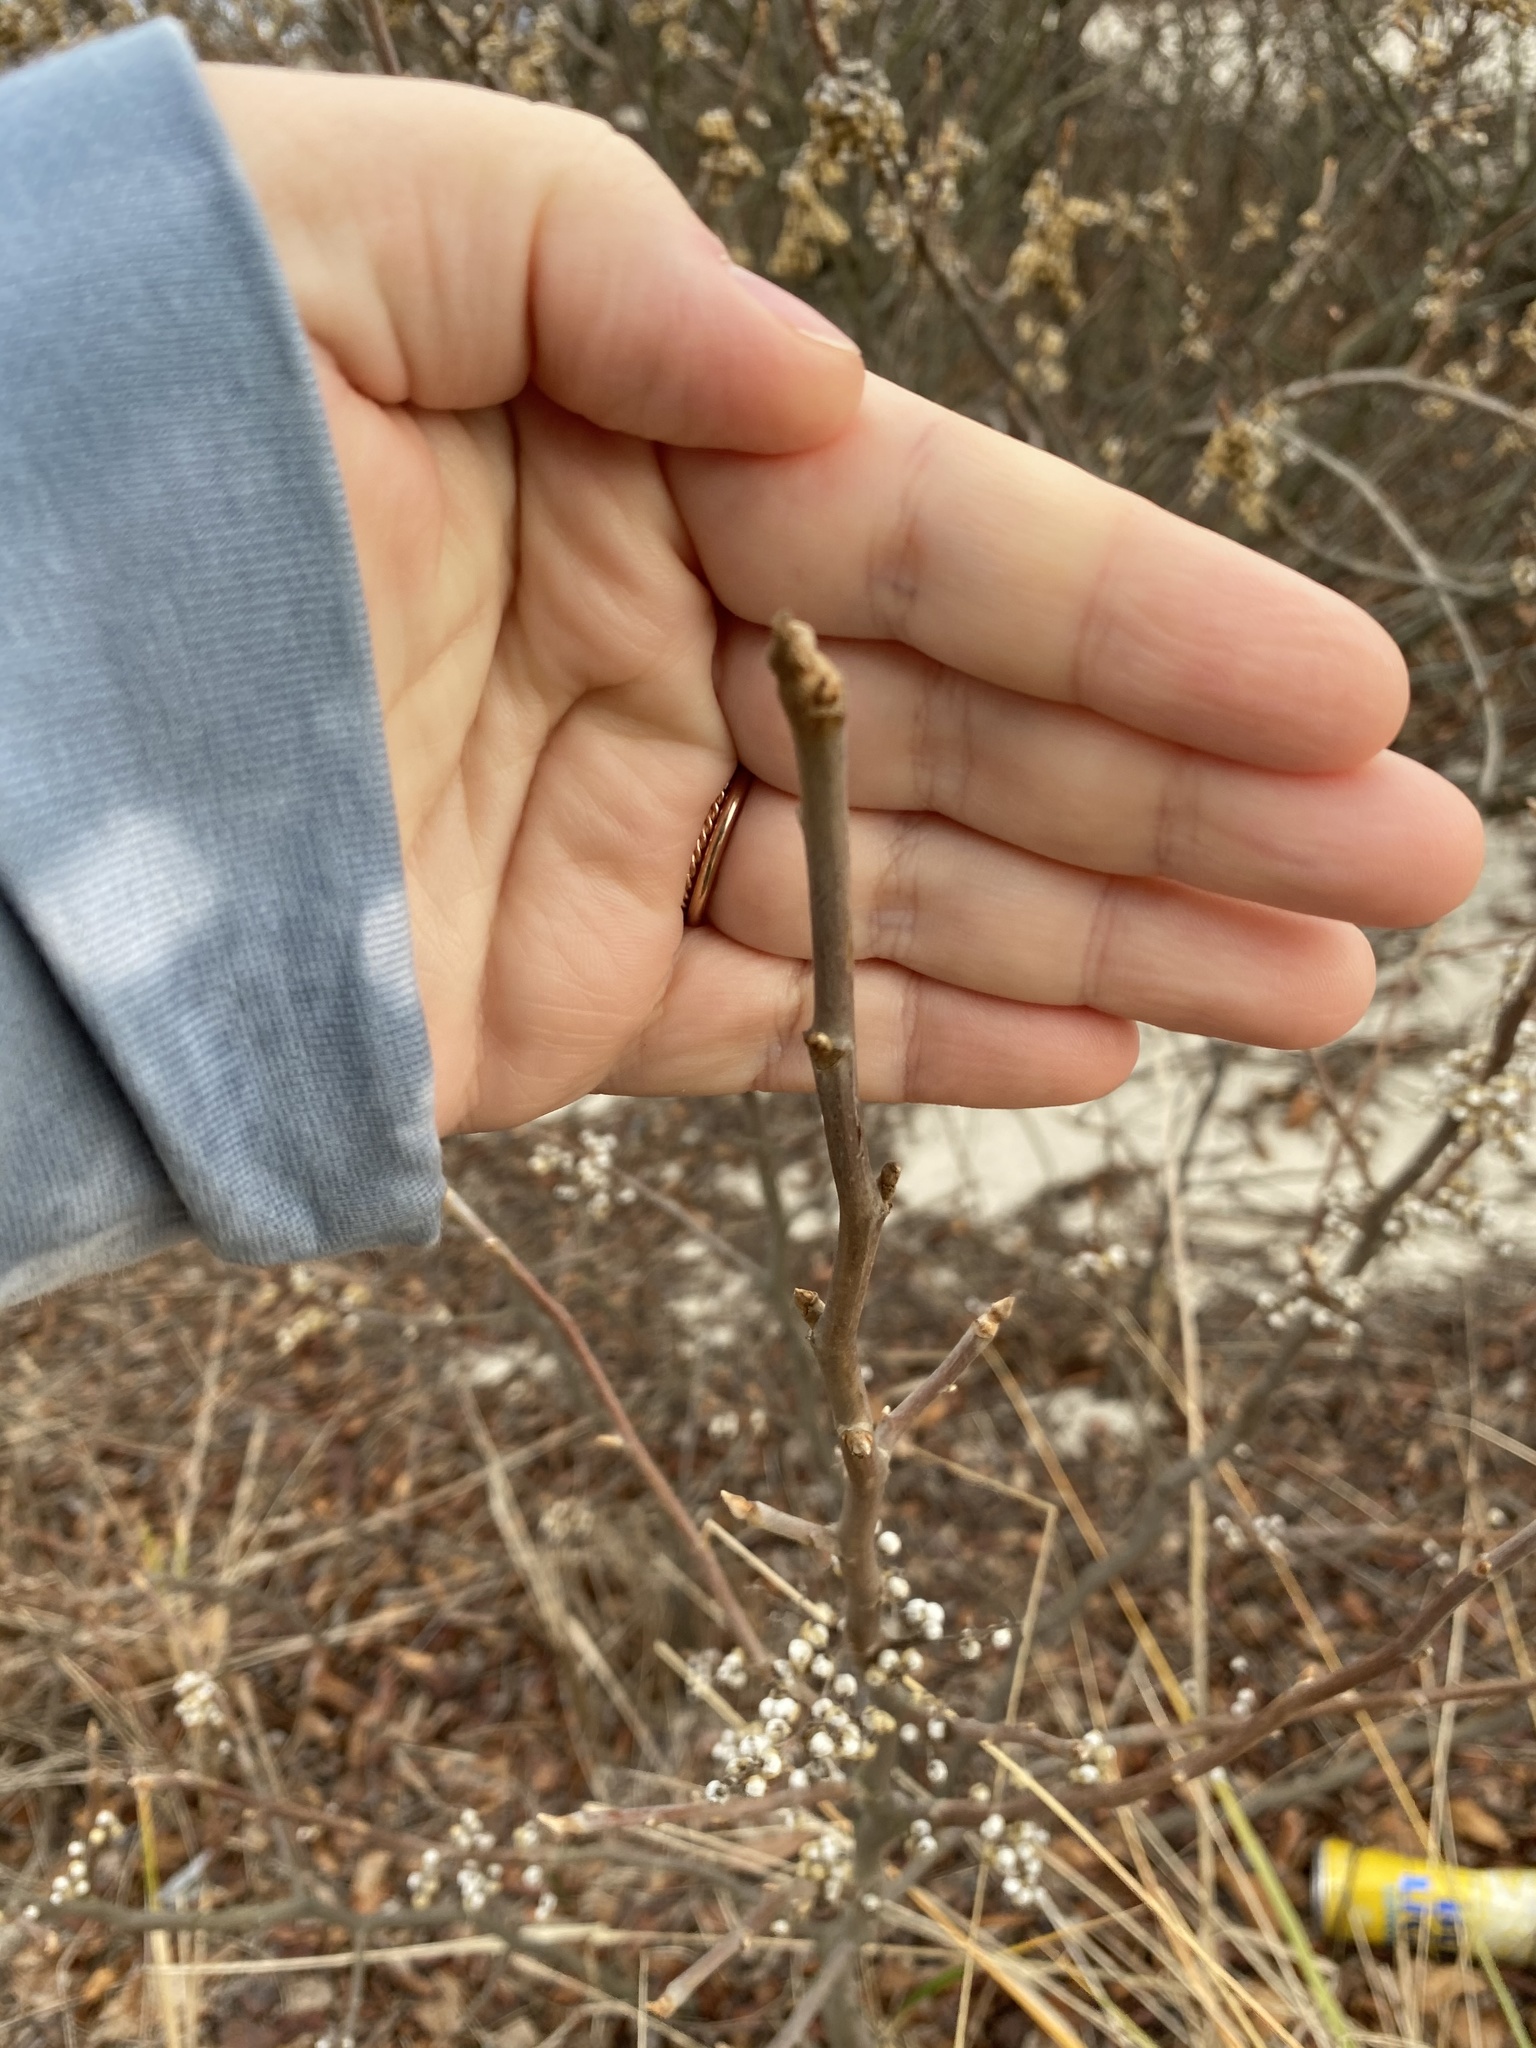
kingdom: Plantae
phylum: Tracheophyta
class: Magnoliopsida
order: Sapindales
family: Anacardiaceae
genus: Toxicodendron
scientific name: Toxicodendron radicans
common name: Poison ivy
